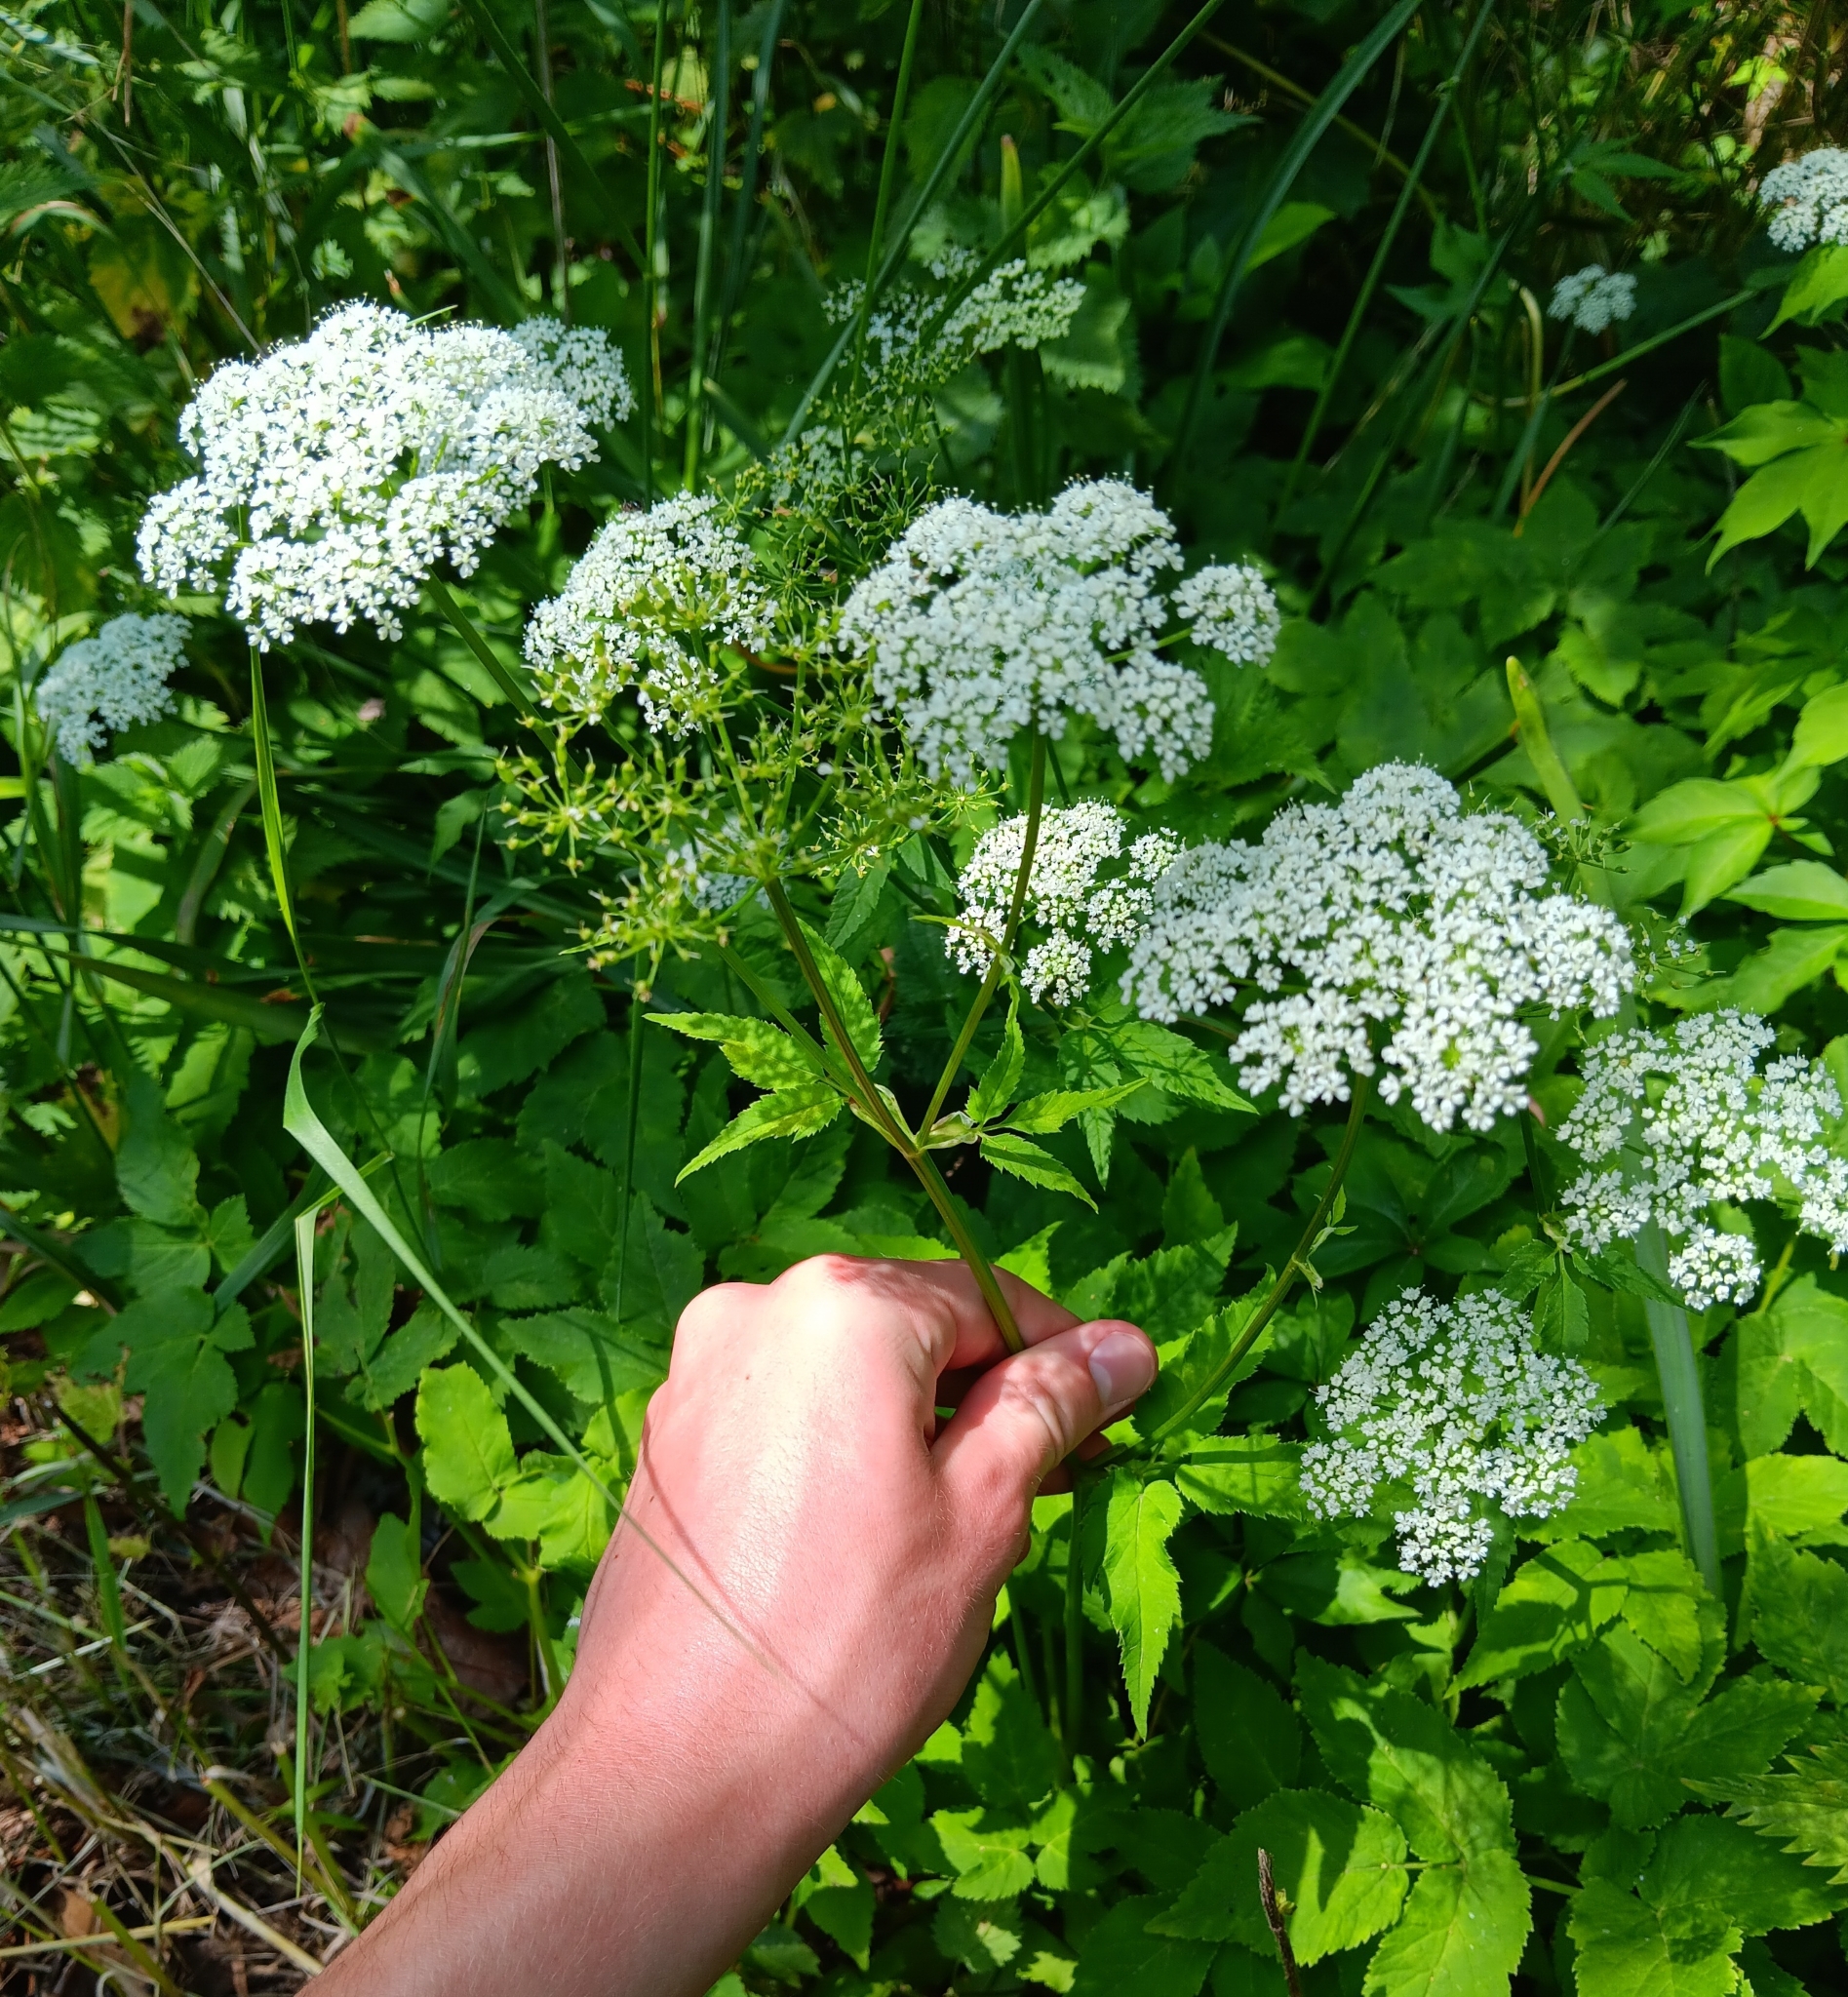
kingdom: Plantae
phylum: Tracheophyta
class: Magnoliopsida
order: Apiales
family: Apiaceae
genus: Aegopodium
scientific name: Aegopodium podagraria
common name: Ground-elder
